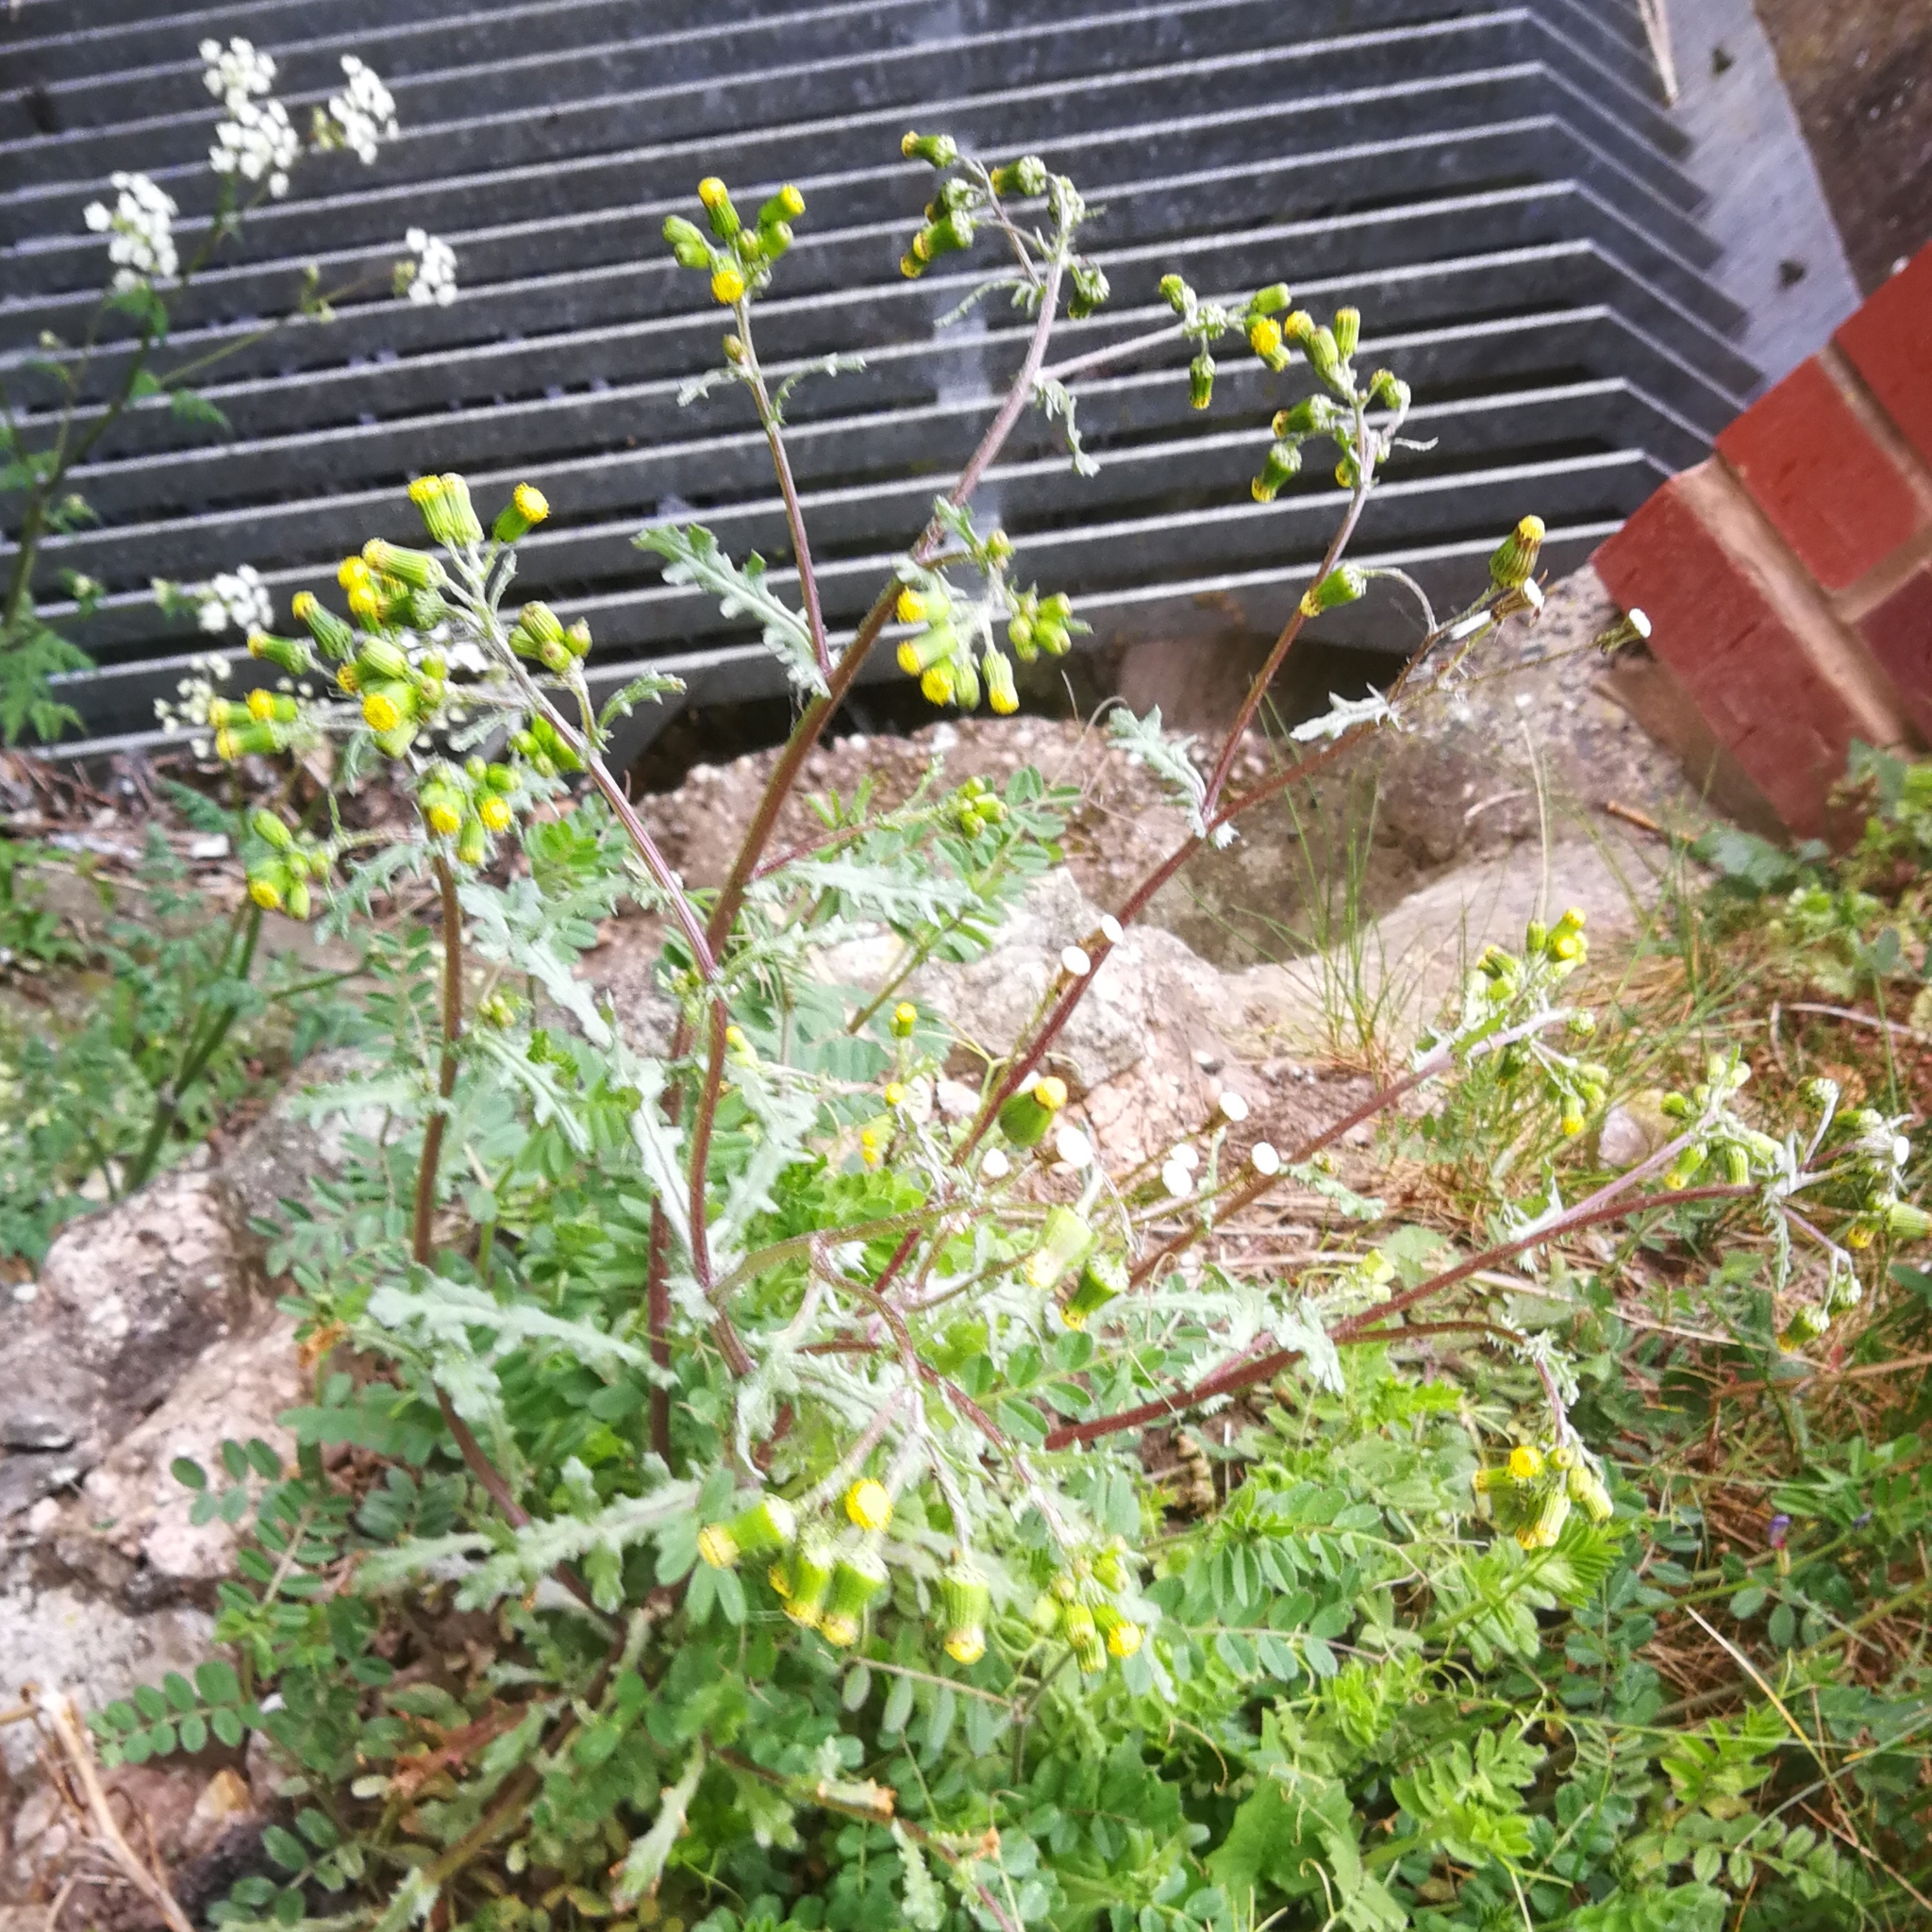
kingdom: Plantae
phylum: Tracheophyta
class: Magnoliopsida
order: Asterales
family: Asteraceae
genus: Senecio
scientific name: Senecio vulgaris
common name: Old-man-in-the-spring
